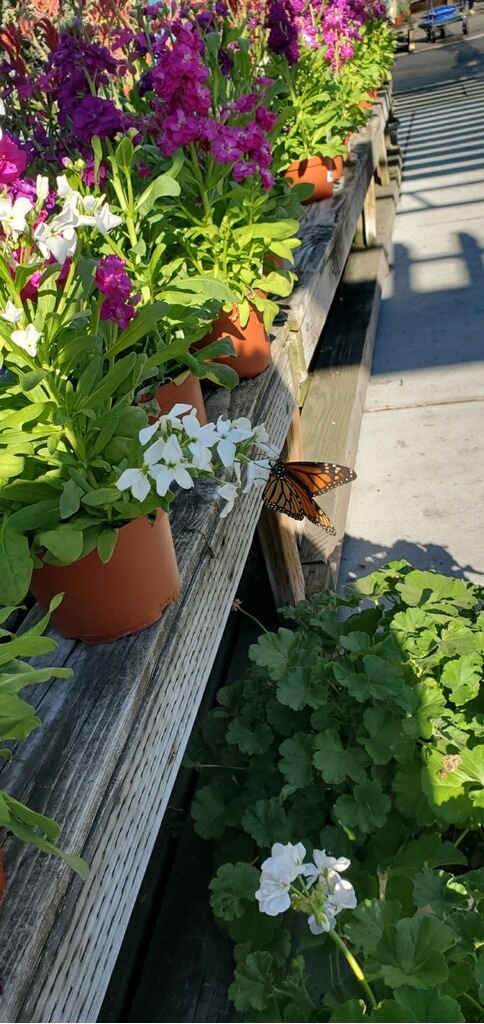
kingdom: Animalia
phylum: Arthropoda
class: Insecta
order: Lepidoptera
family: Nymphalidae
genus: Danaus
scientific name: Danaus plexippus
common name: Monarch
